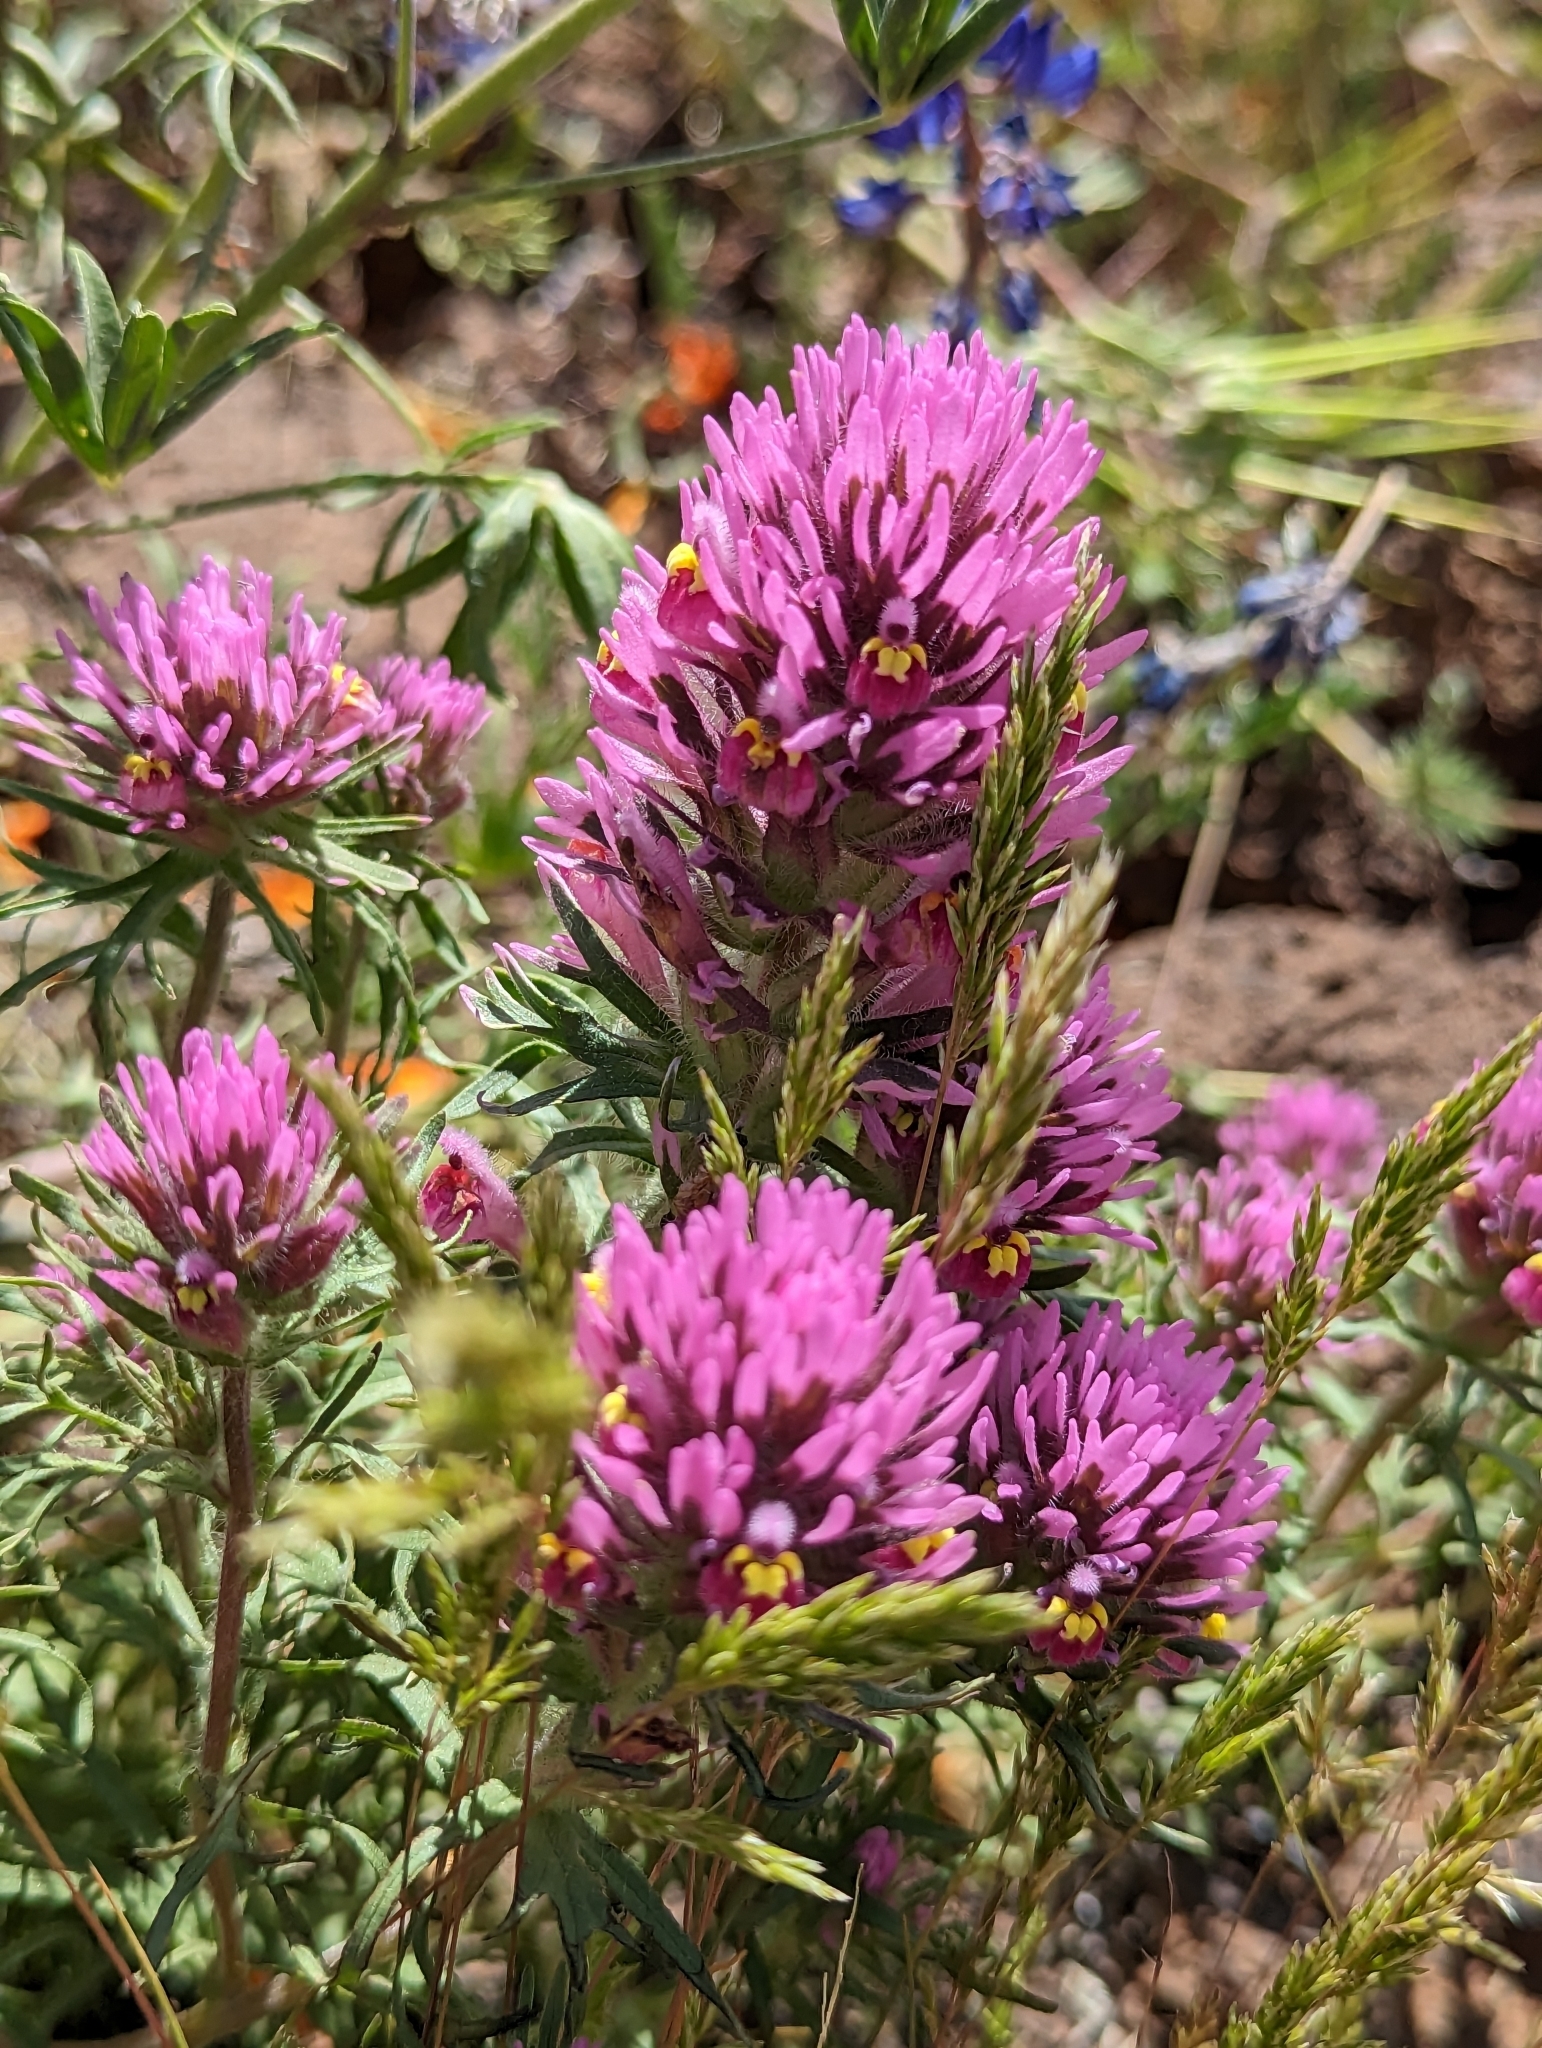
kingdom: Plantae
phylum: Tracheophyta
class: Magnoliopsida
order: Lamiales
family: Orobanchaceae
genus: Castilleja
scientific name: Castilleja exserta
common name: Purple owl-clover
